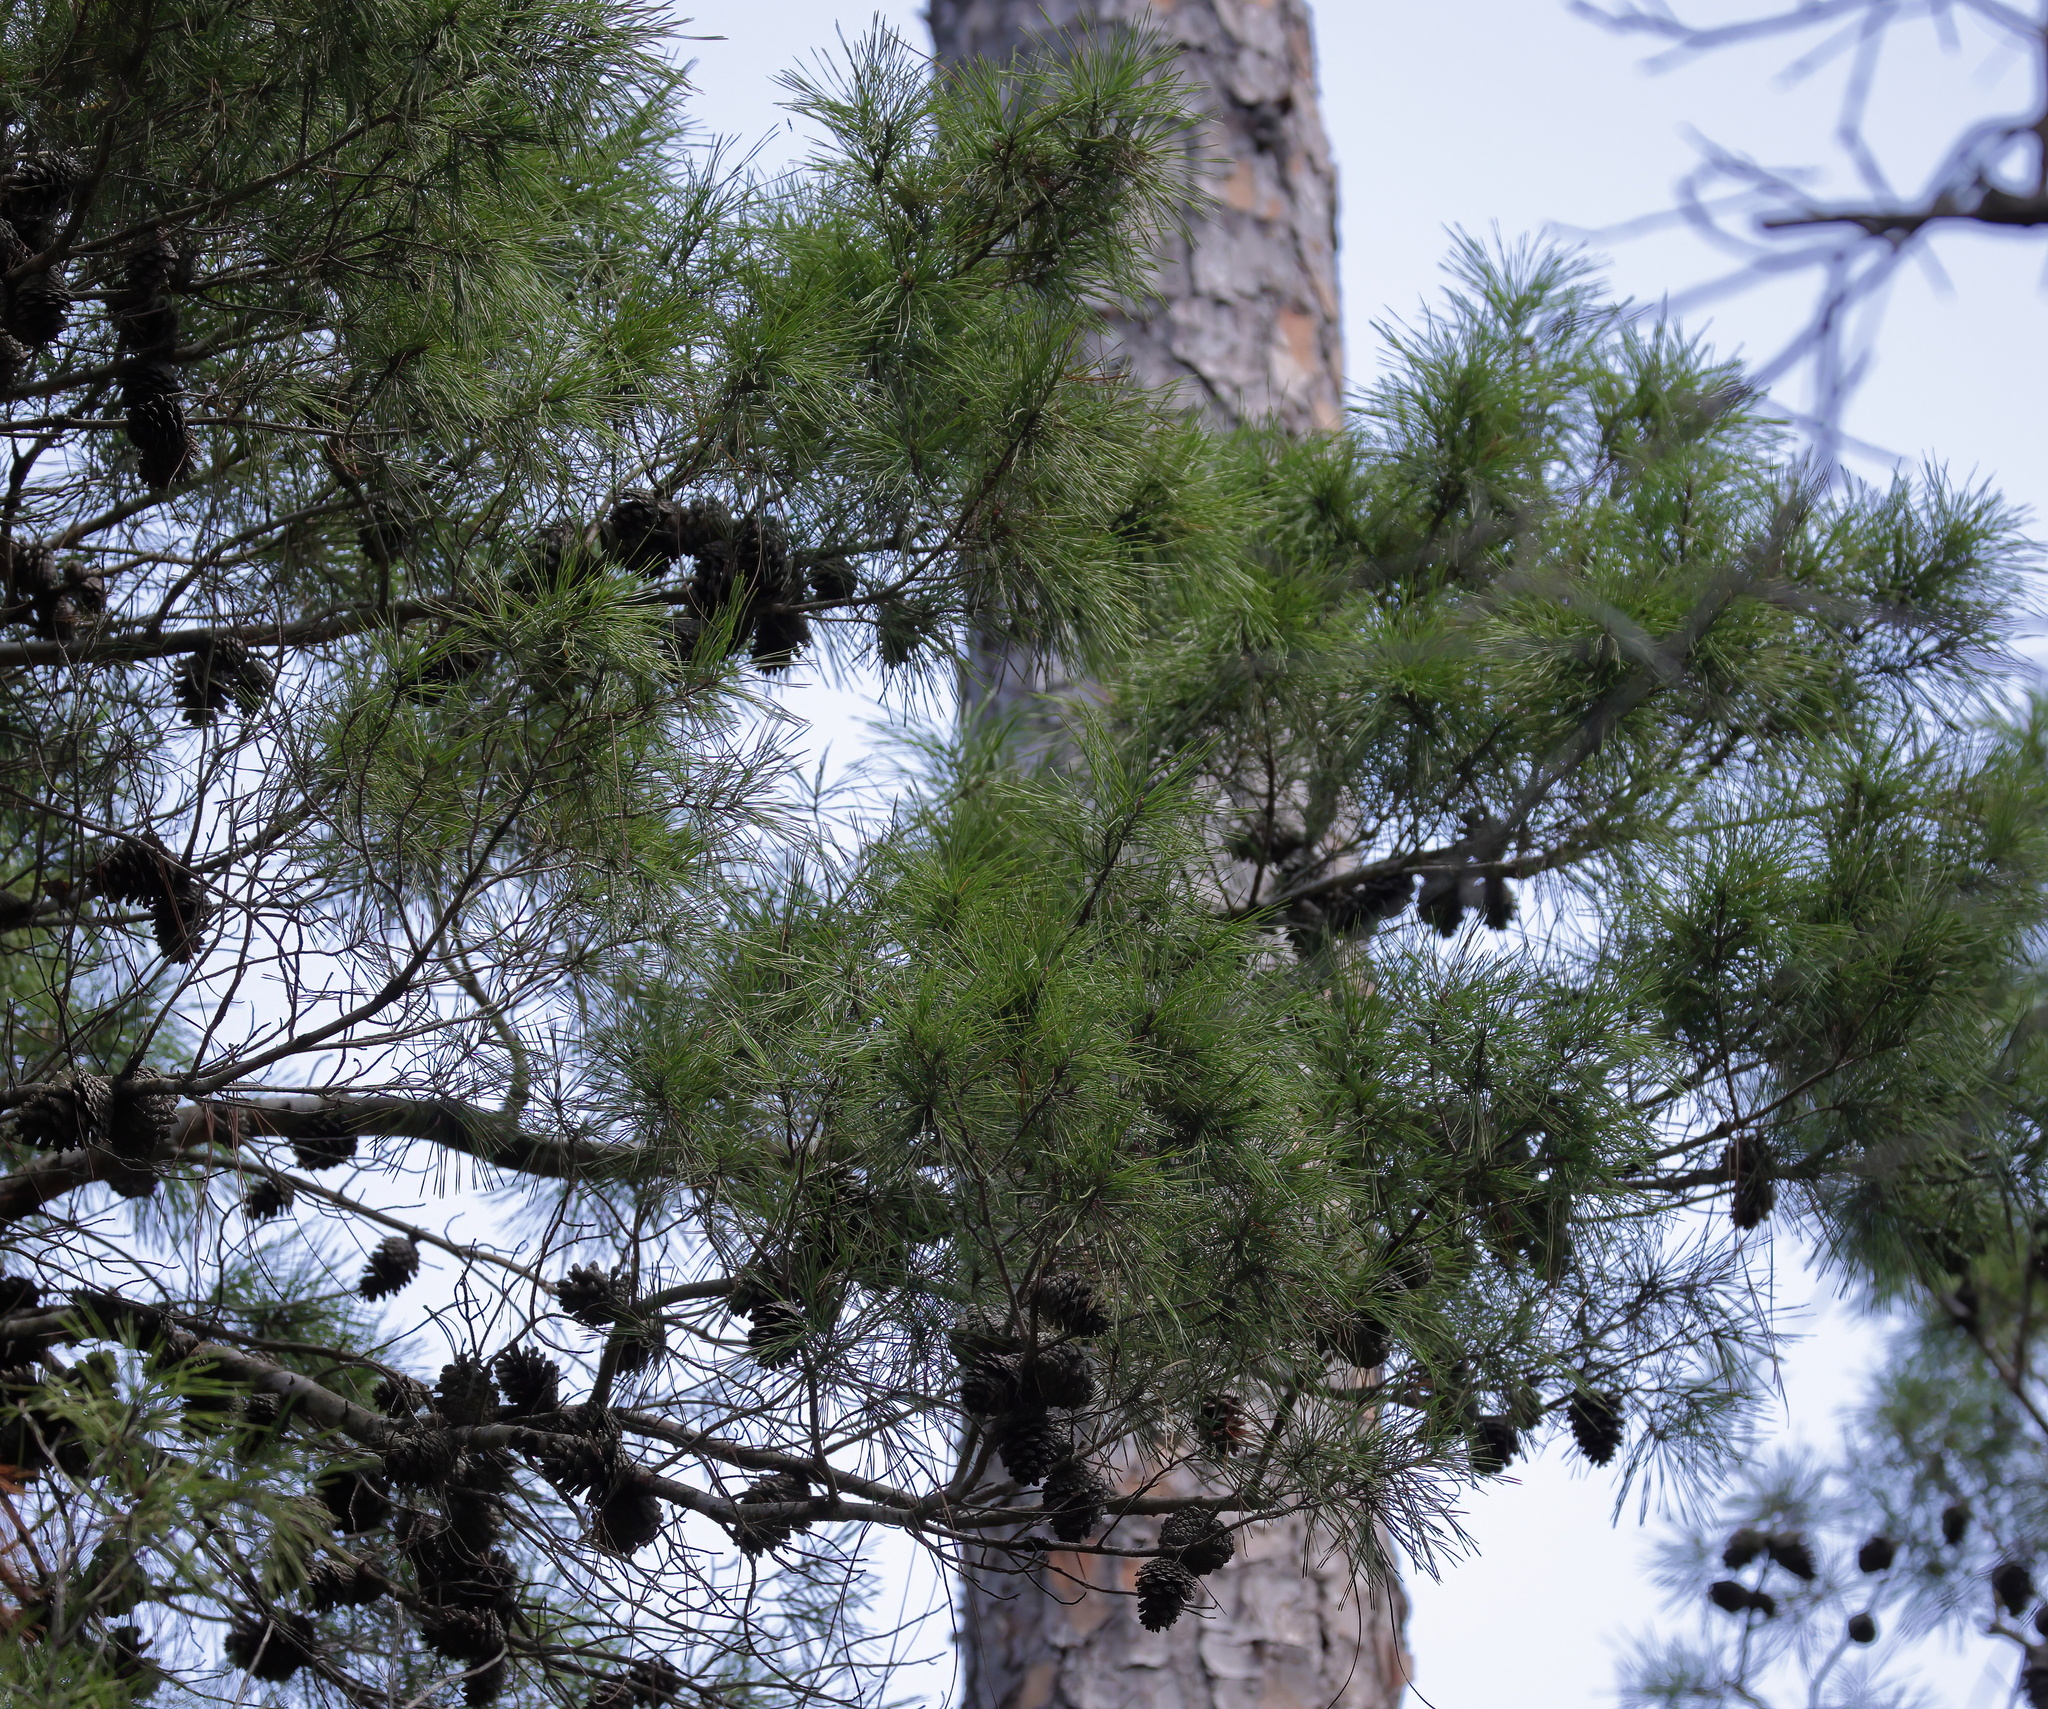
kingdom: Plantae
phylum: Tracheophyta
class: Pinopsida
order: Pinales
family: Pinaceae
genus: Pinus
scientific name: Pinus clausa
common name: Sand pine
